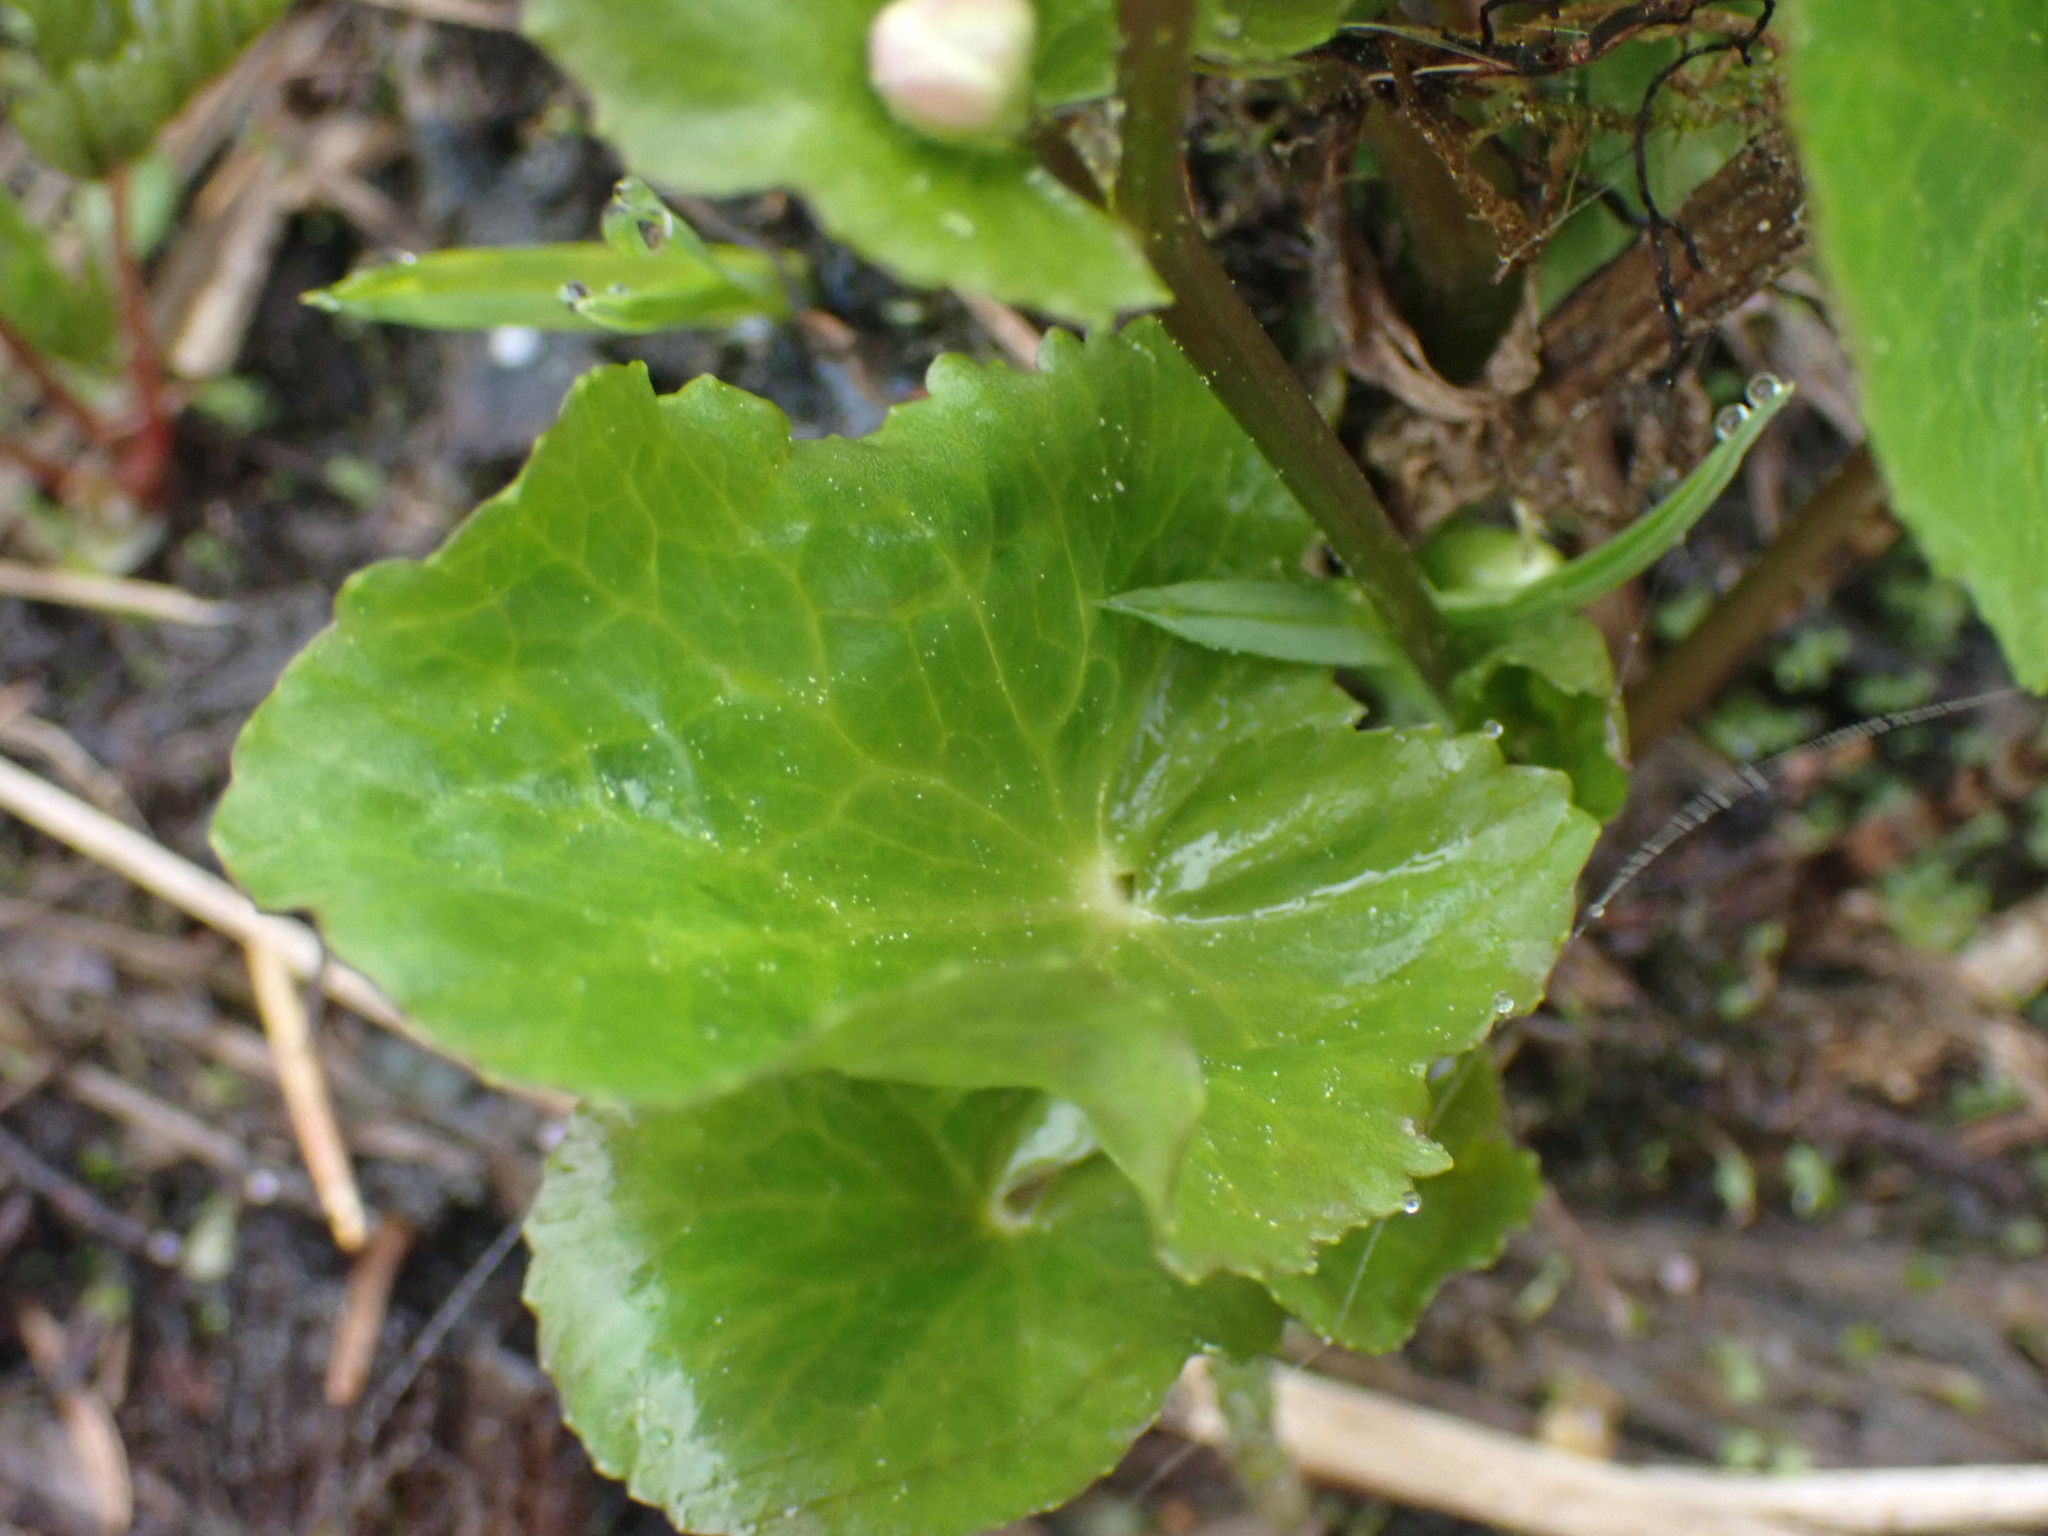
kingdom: Plantae
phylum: Tracheophyta
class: Magnoliopsida
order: Ranunculales
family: Ranunculaceae
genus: Caltha
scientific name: Caltha leptosepala
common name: Elkslip
